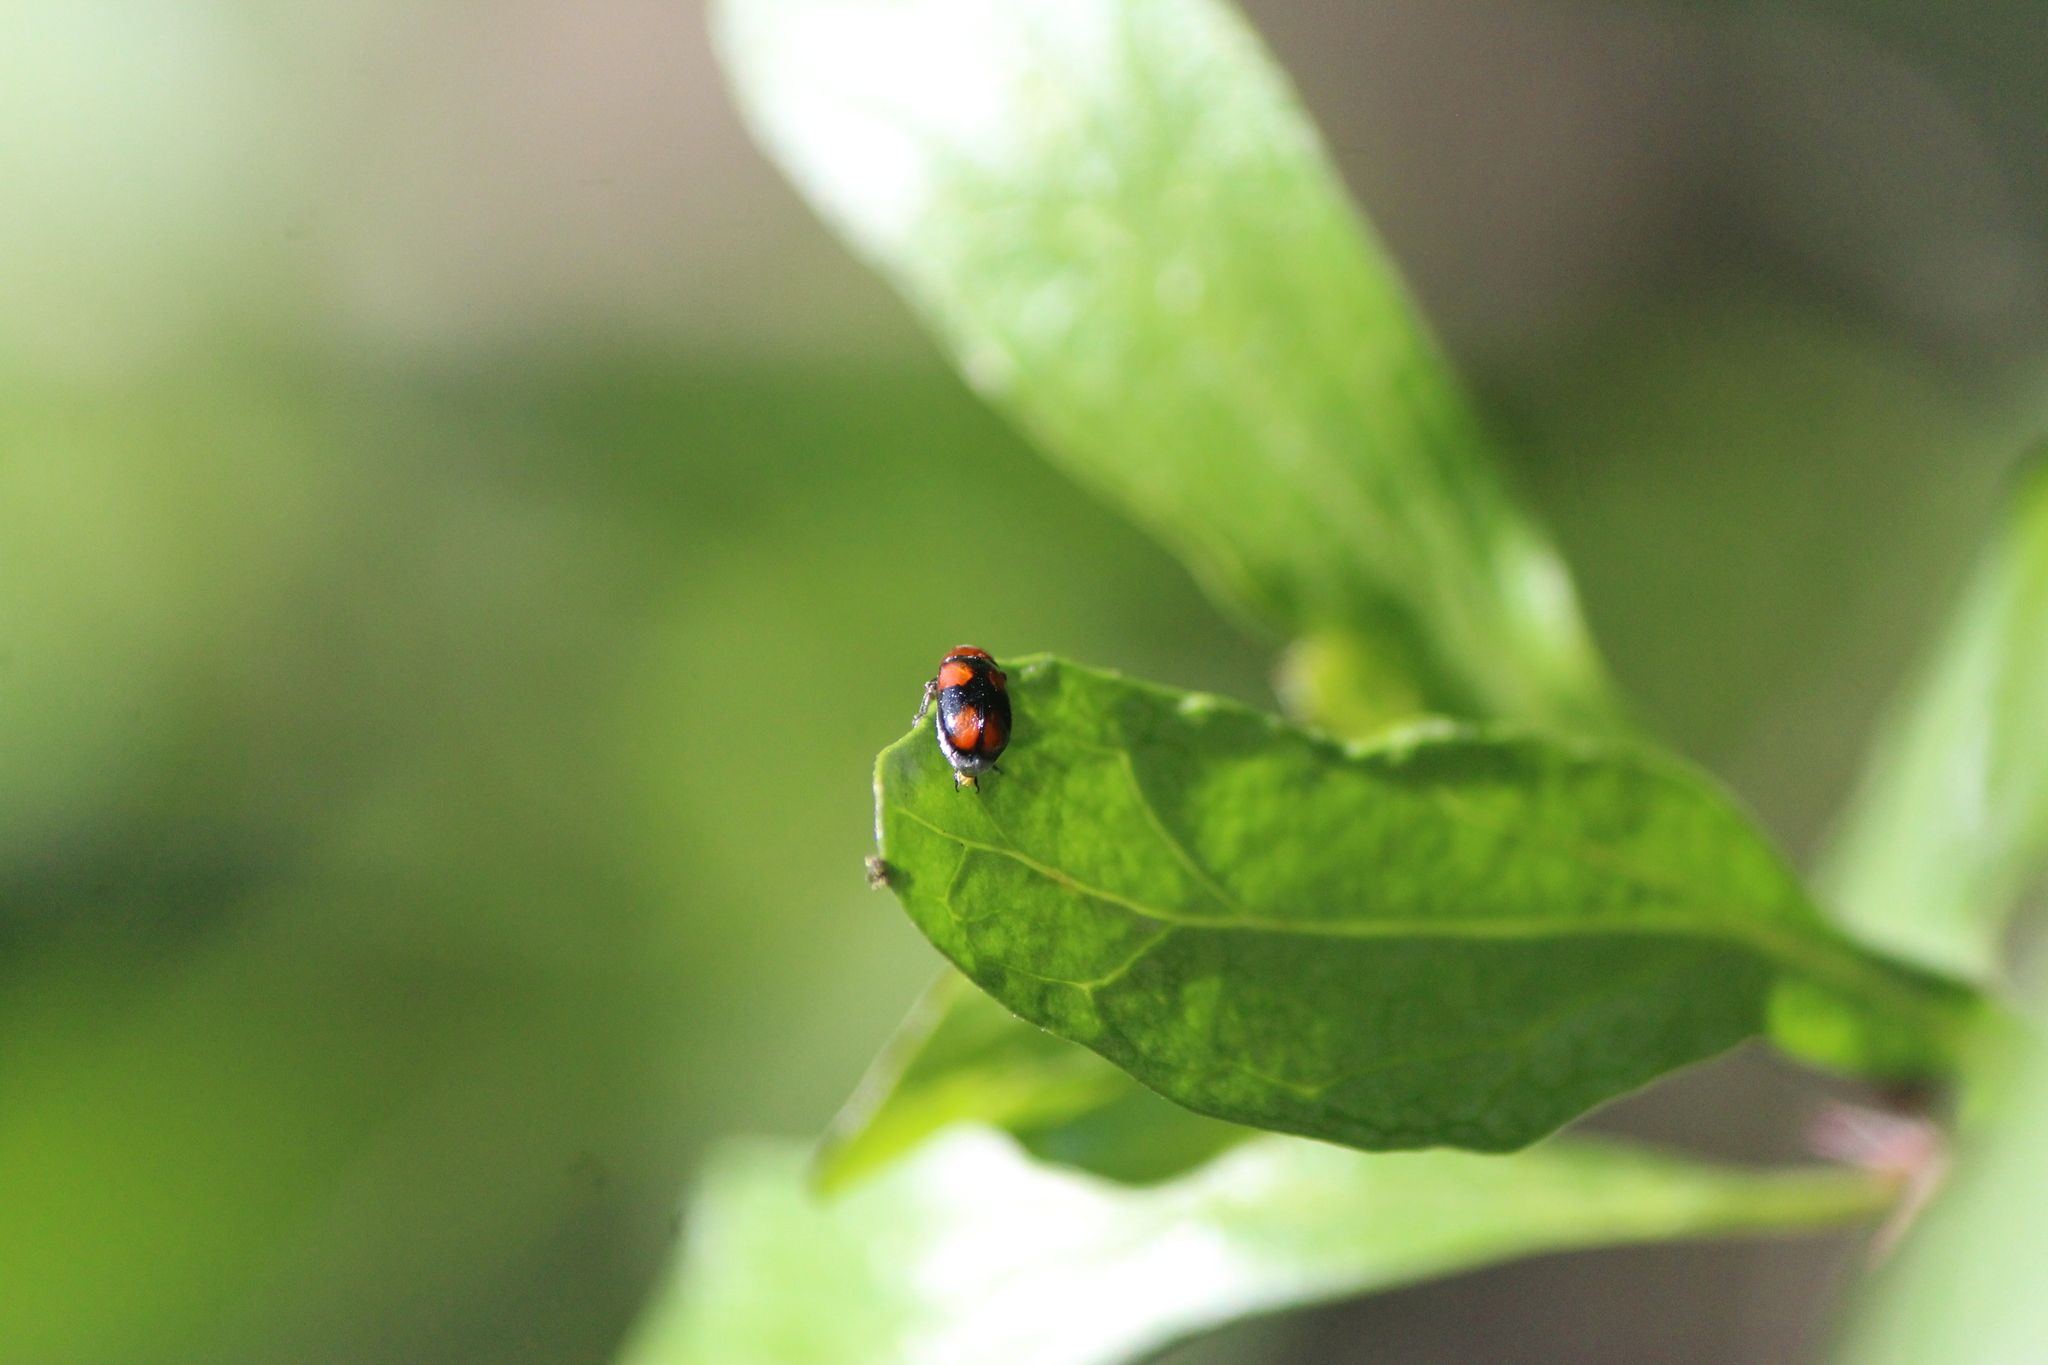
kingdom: Animalia
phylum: Arthropoda
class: Insecta
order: Coleoptera
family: Chrysomelidae
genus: Smaragdina
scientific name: Smaragdina
